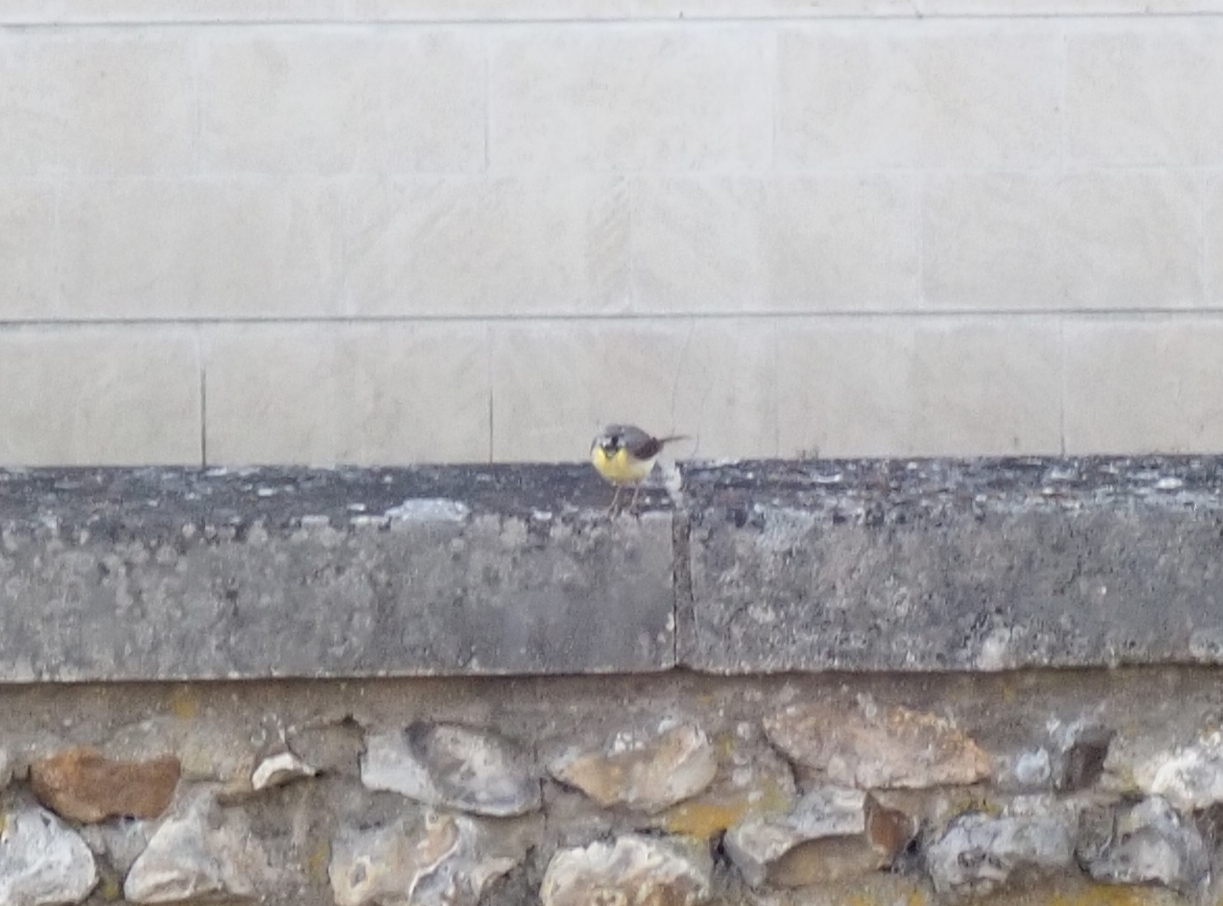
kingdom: Animalia
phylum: Chordata
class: Aves
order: Passeriformes
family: Motacillidae
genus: Motacilla
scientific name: Motacilla cinerea
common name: Grey wagtail
